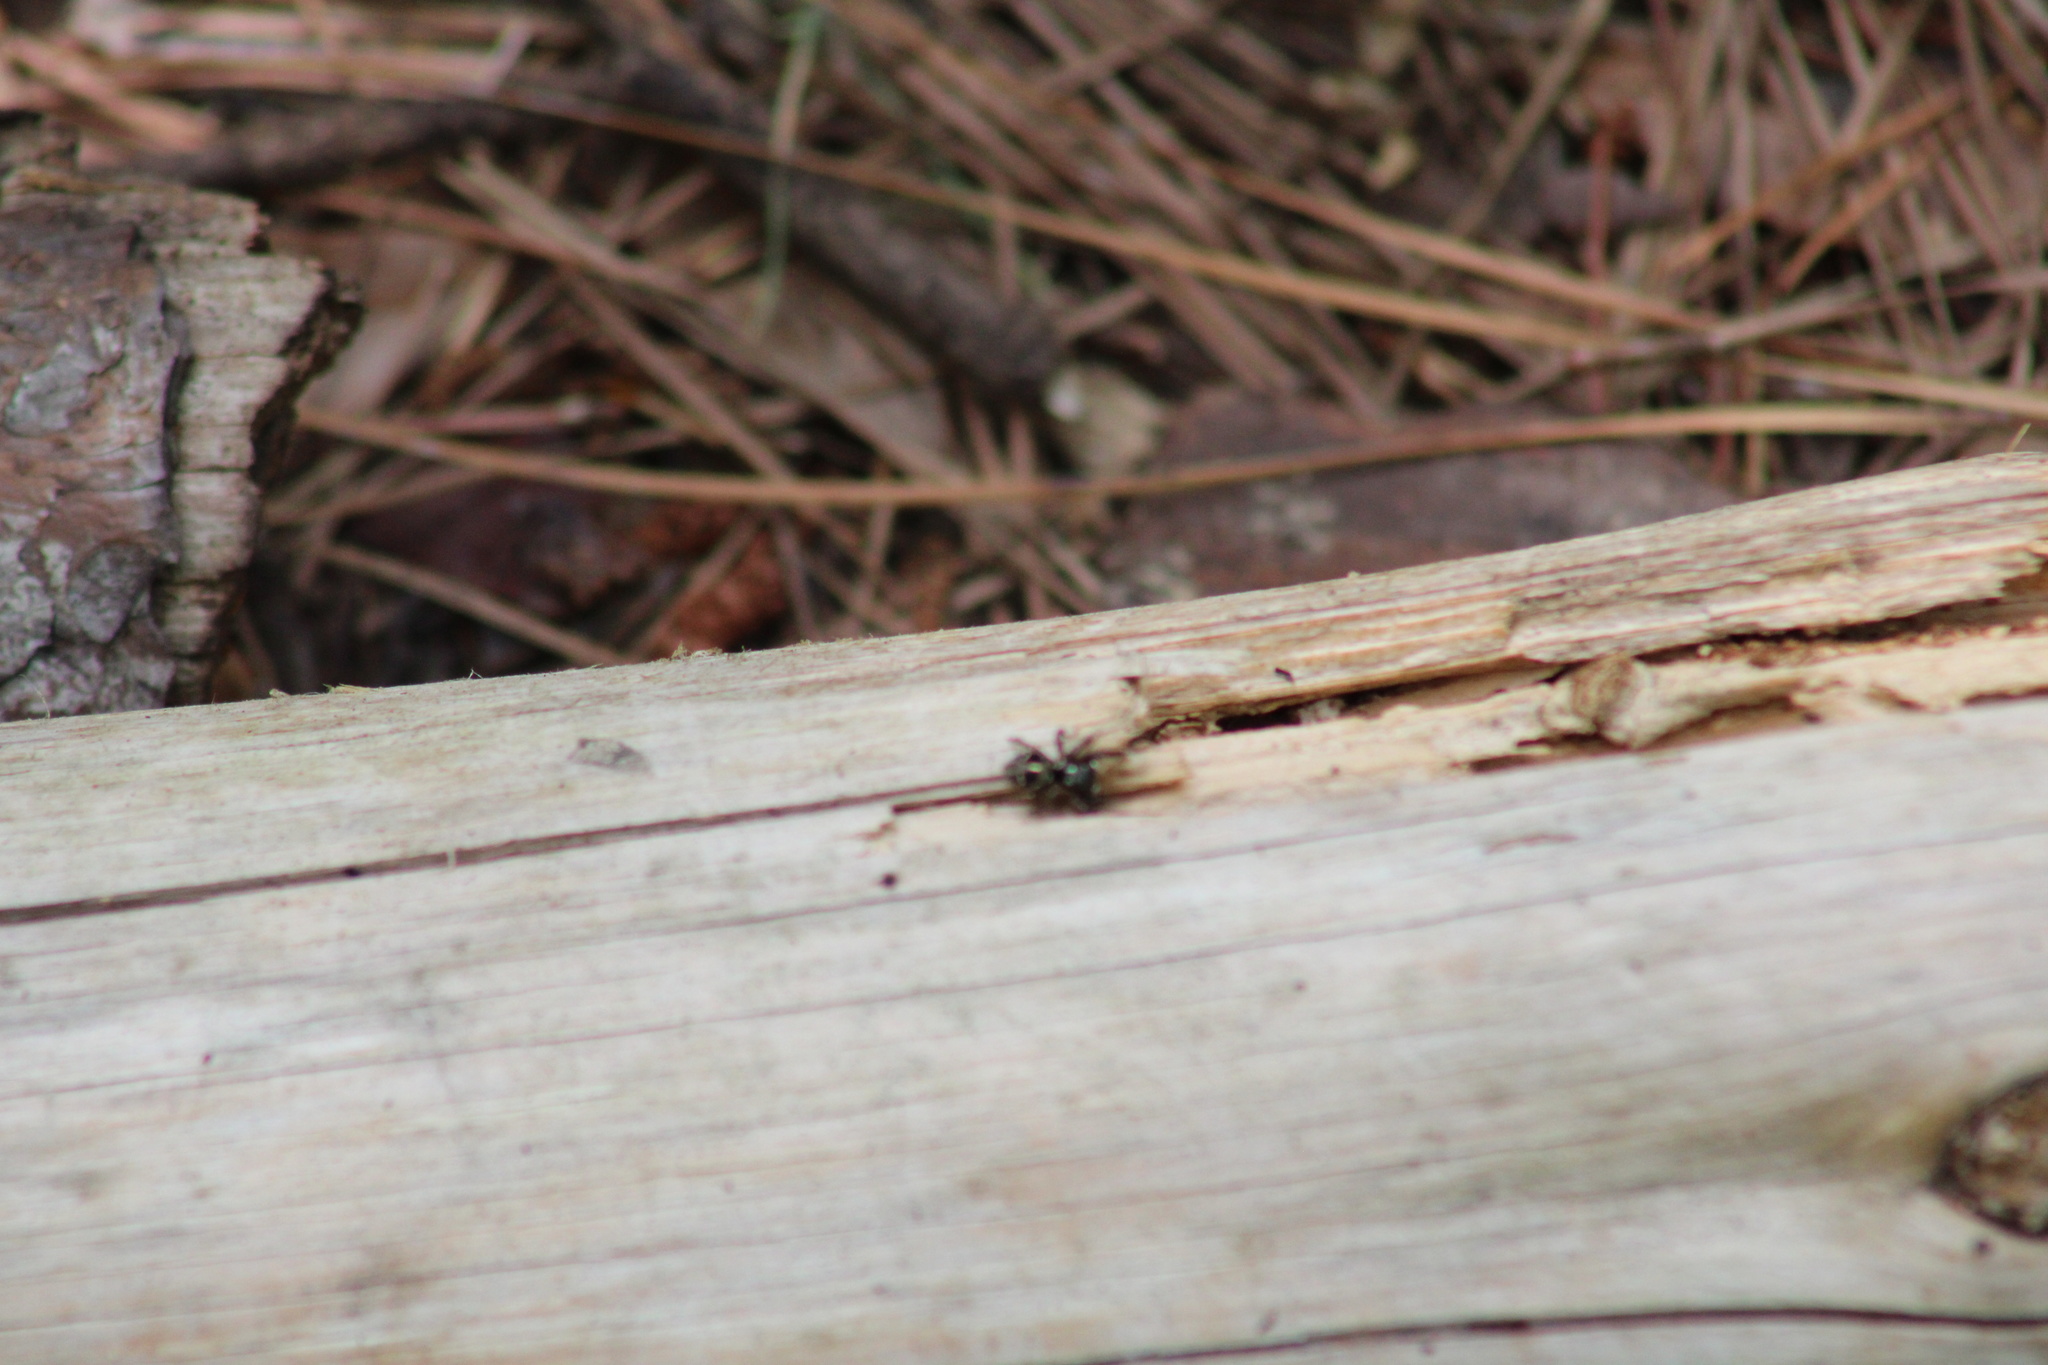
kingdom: Animalia
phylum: Arthropoda
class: Arachnida
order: Araneae
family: Salticidae
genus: Anasaitis
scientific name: Anasaitis canosa
